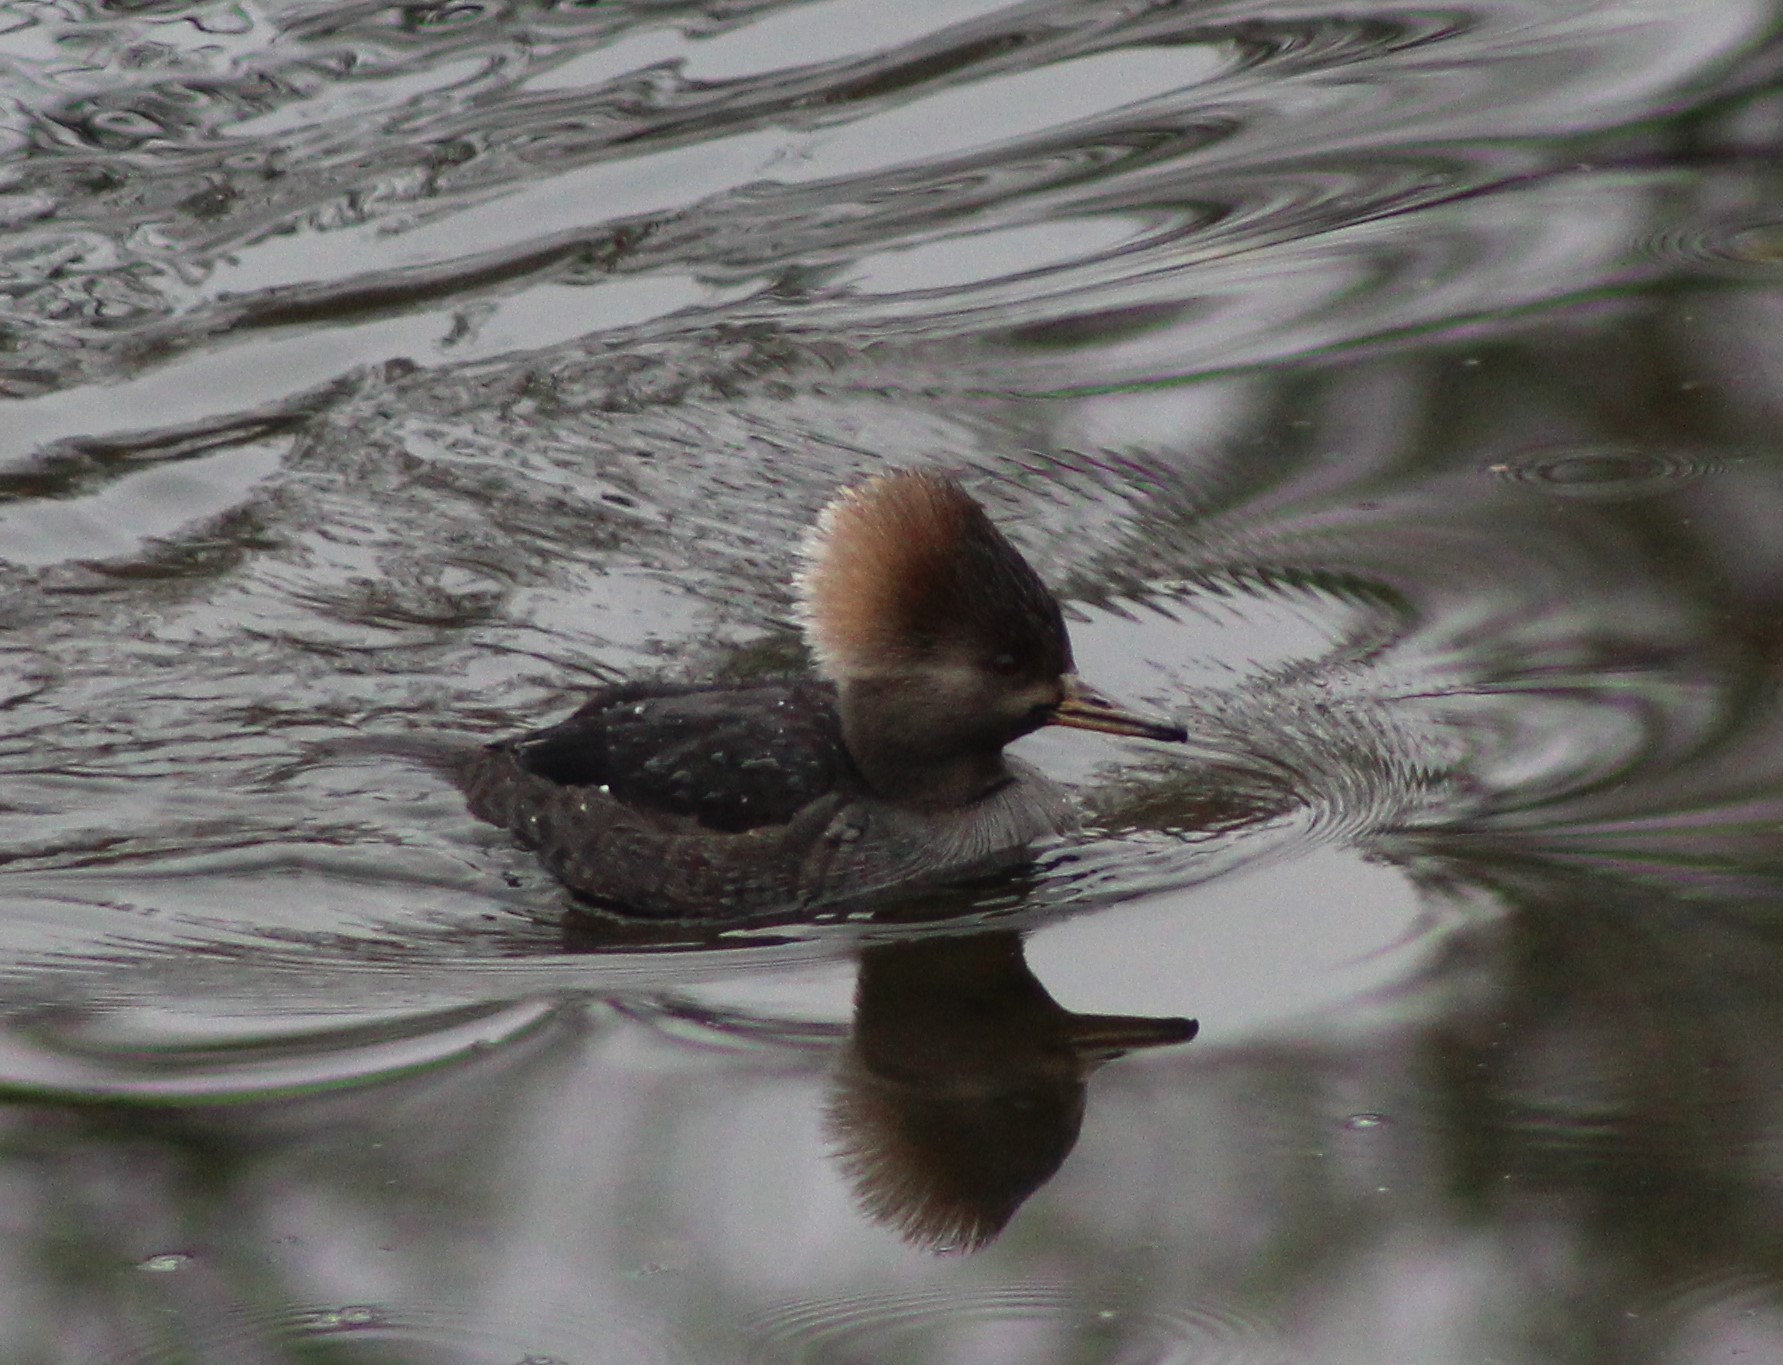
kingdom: Animalia
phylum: Chordata
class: Aves
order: Anseriformes
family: Anatidae
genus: Lophodytes
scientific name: Lophodytes cucullatus
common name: Hooded merganser
